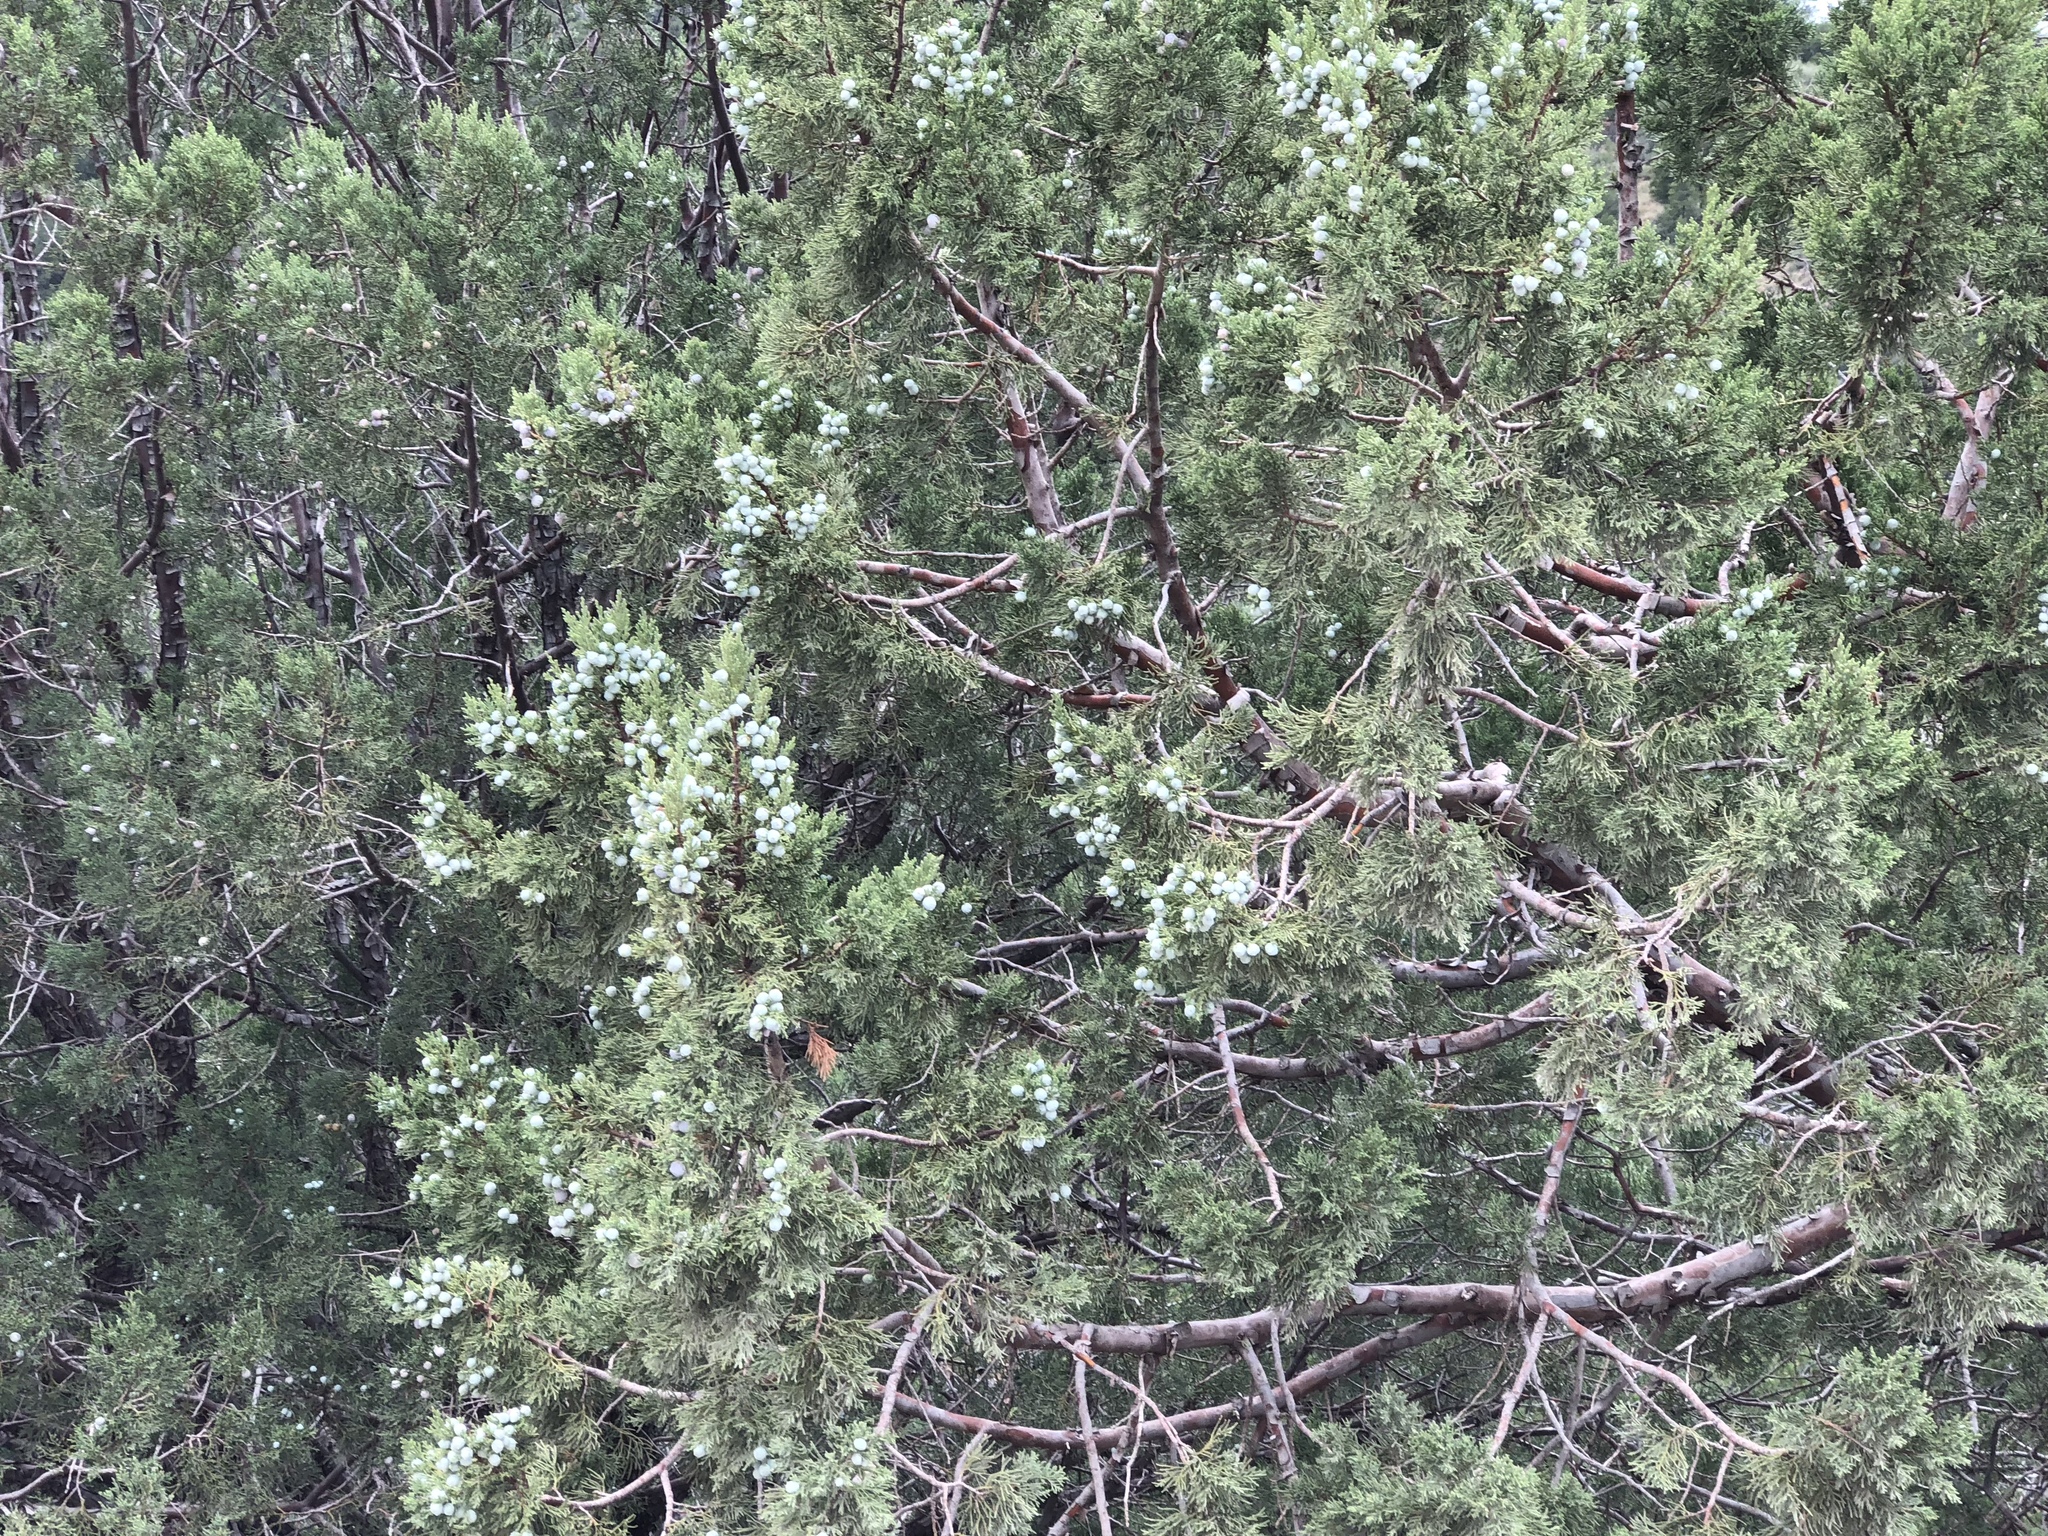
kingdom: Plantae
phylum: Tracheophyta
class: Pinopsida
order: Pinales
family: Cupressaceae
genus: Juniperus
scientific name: Juniperus deppeana
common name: Alligator juniper
